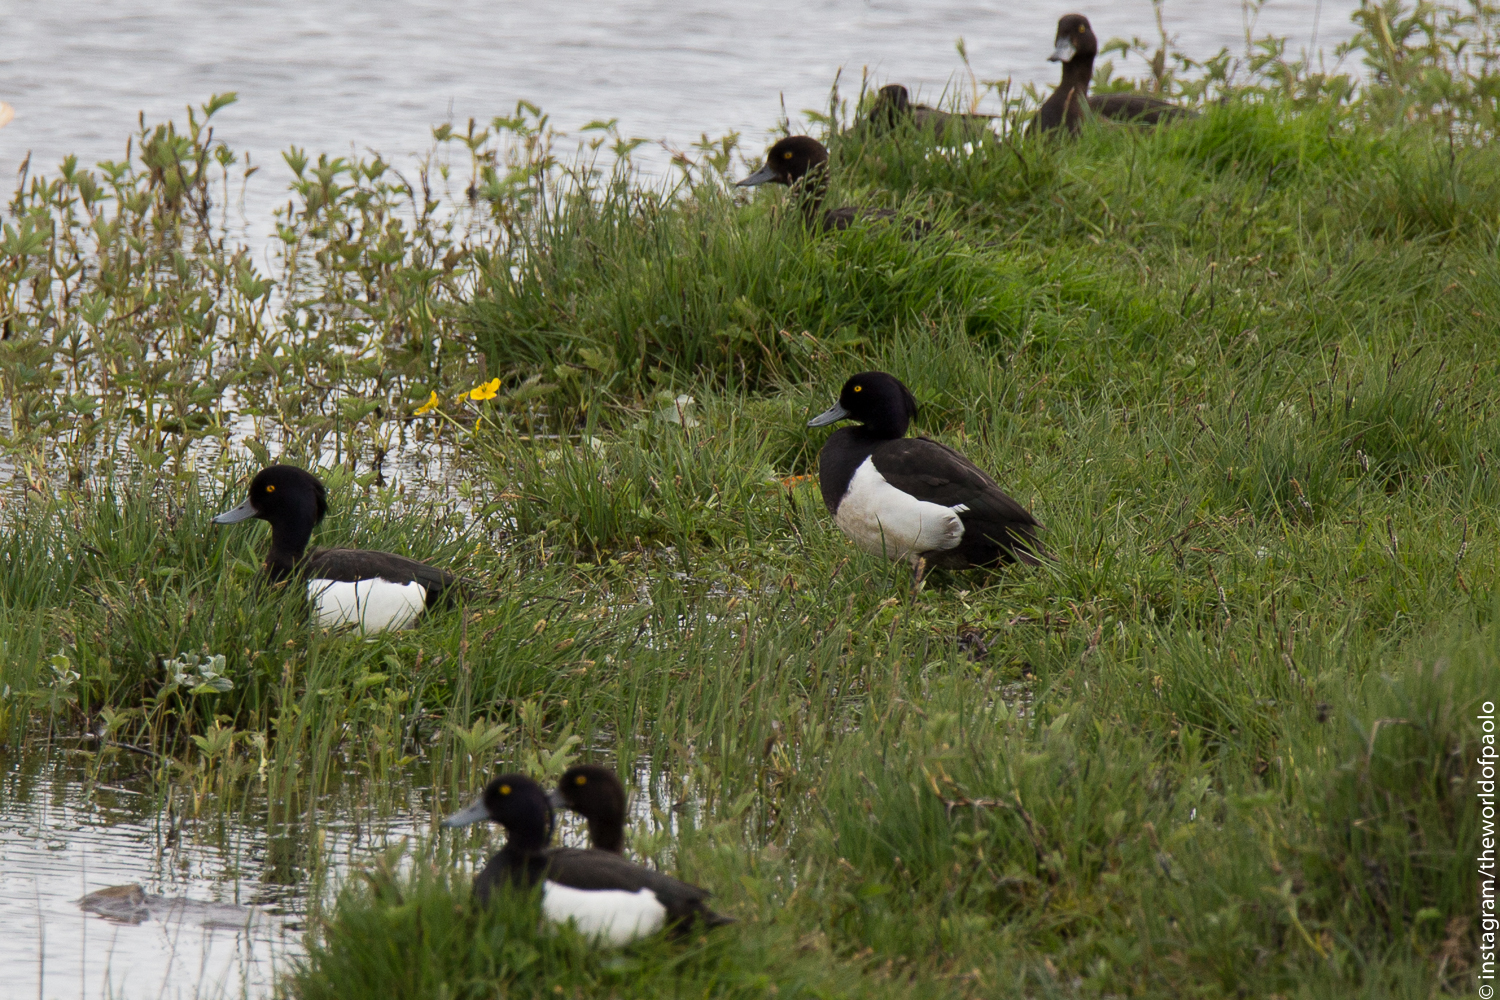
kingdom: Animalia
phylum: Chordata
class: Aves
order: Anseriformes
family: Anatidae
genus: Aythya
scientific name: Aythya fuligula
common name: Tufted duck
